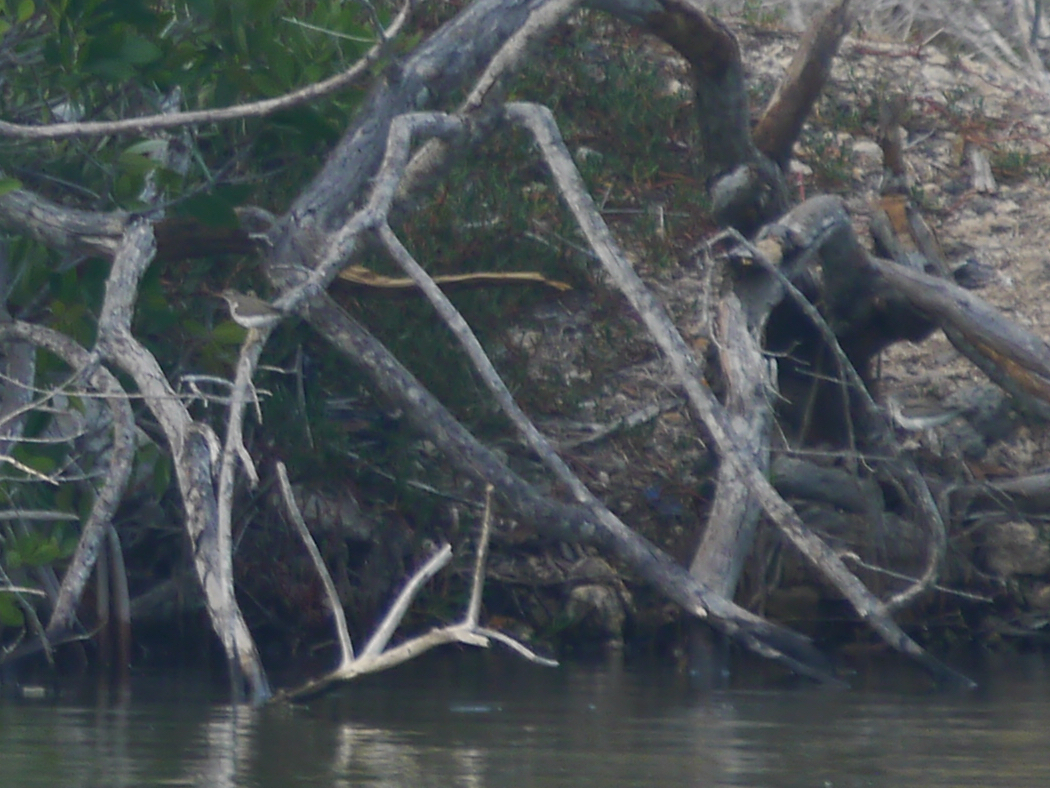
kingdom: Animalia
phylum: Chordata
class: Aves
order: Charadriiformes
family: Scolopacidae
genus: Actitis
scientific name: Actitis macularius
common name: Spotted sandpiper
